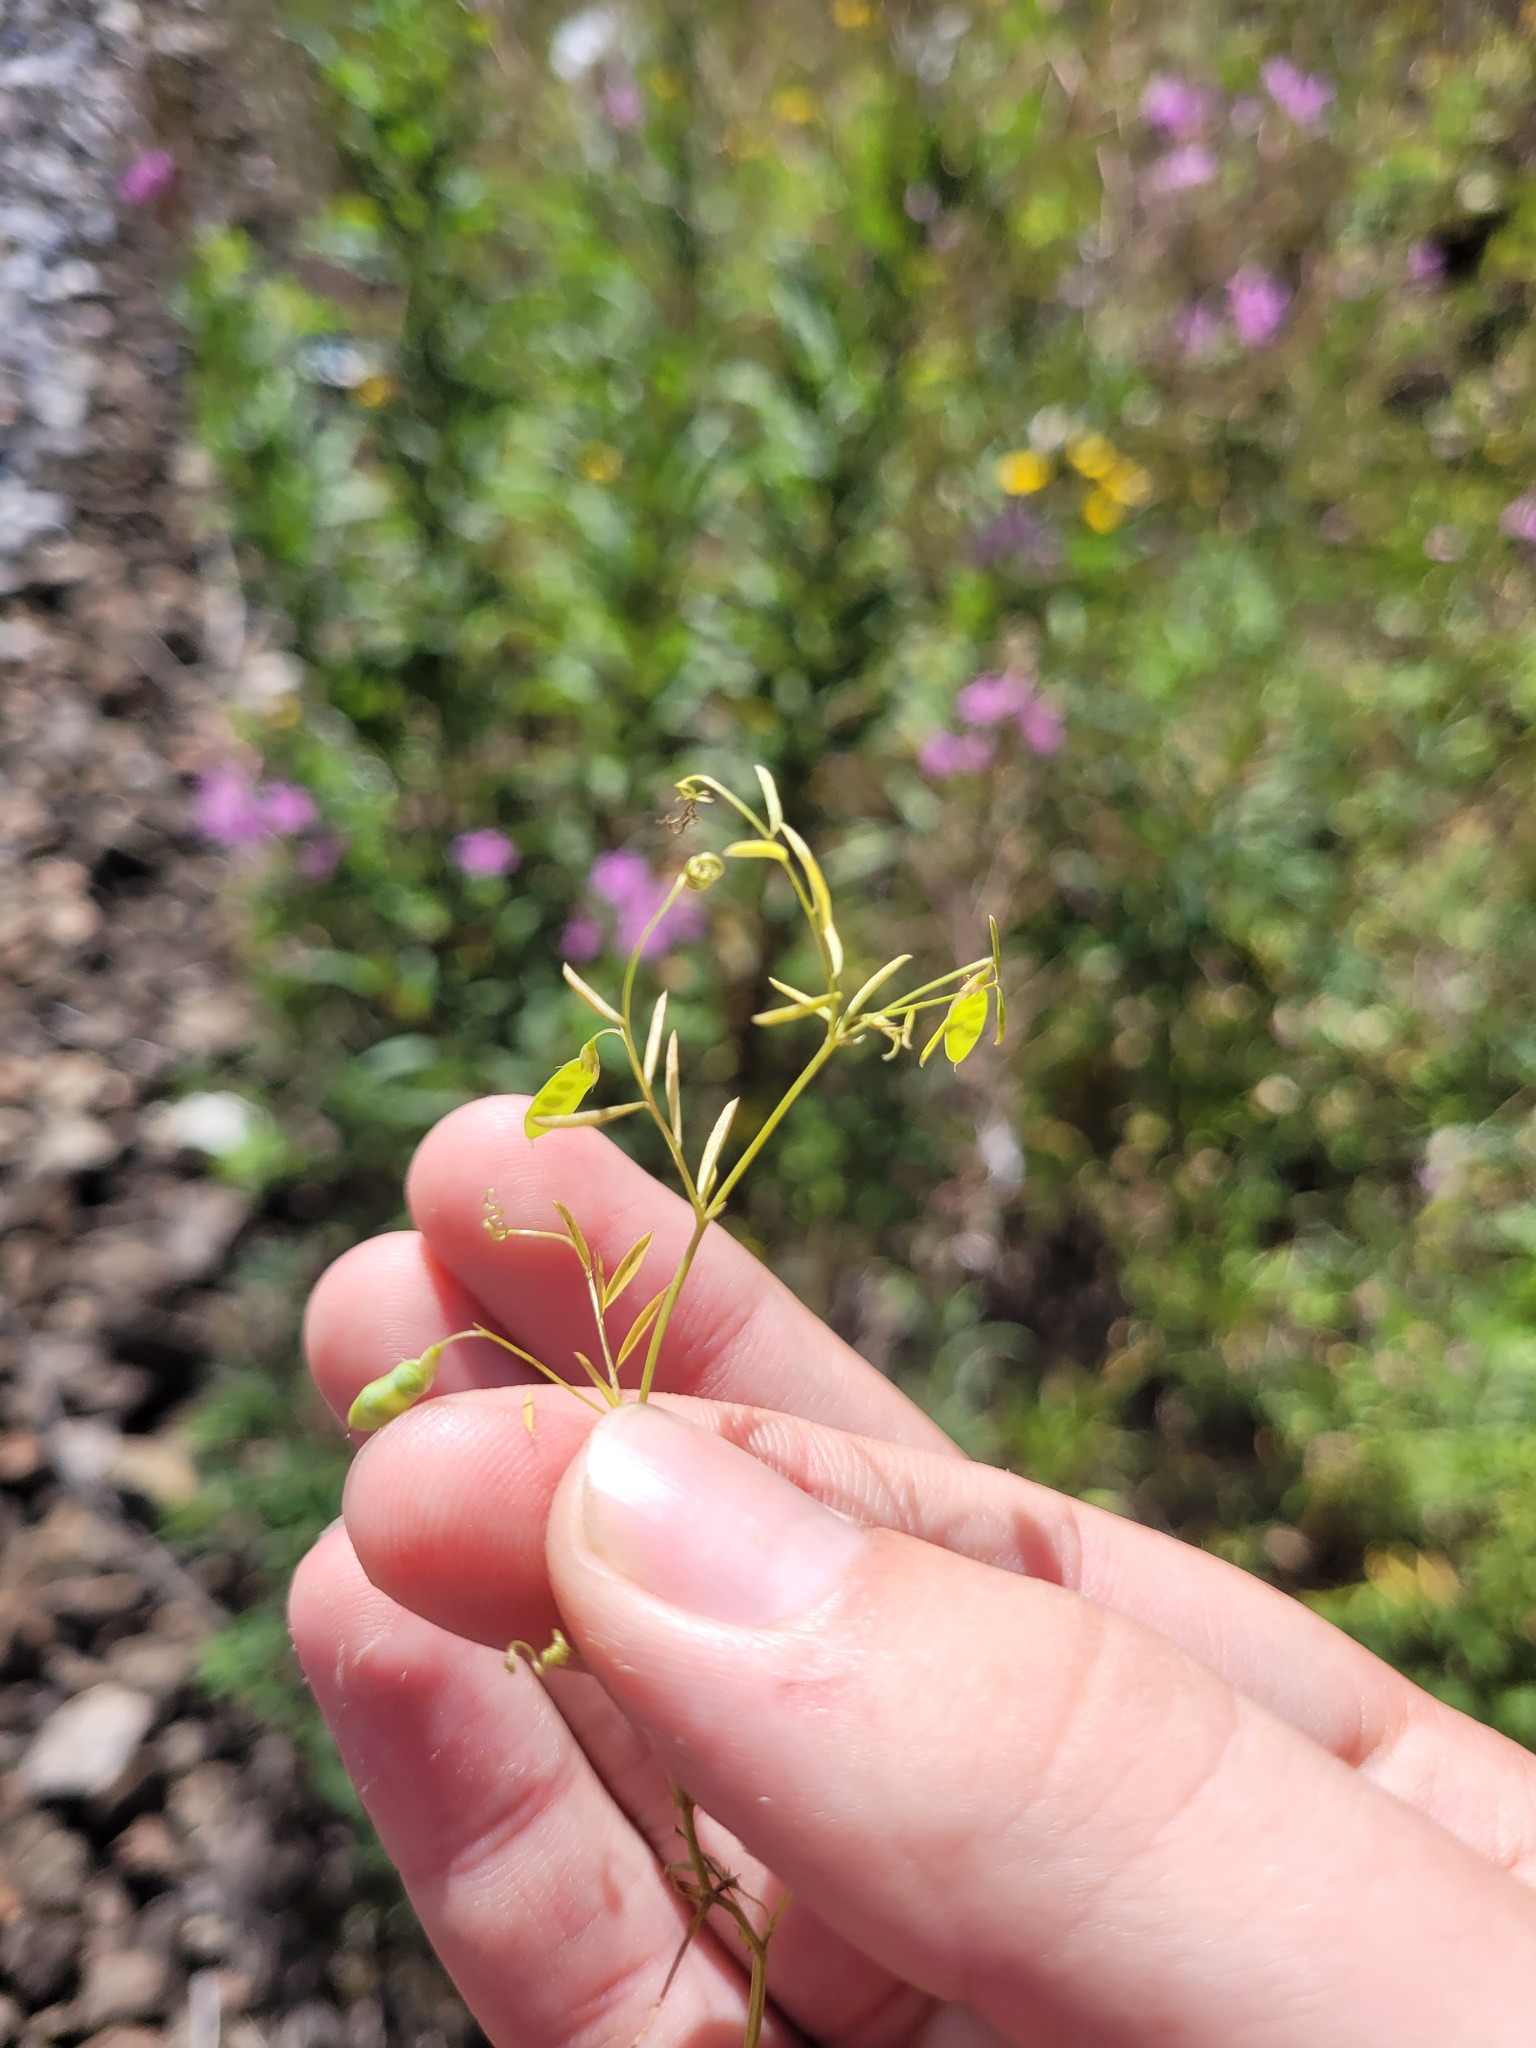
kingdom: Plantae
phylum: Tracheophyta
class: Magnoliopsida
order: Fabales
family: Fabaceae
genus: Vicia
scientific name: Vicia tetrasperma
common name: Smooth tare
